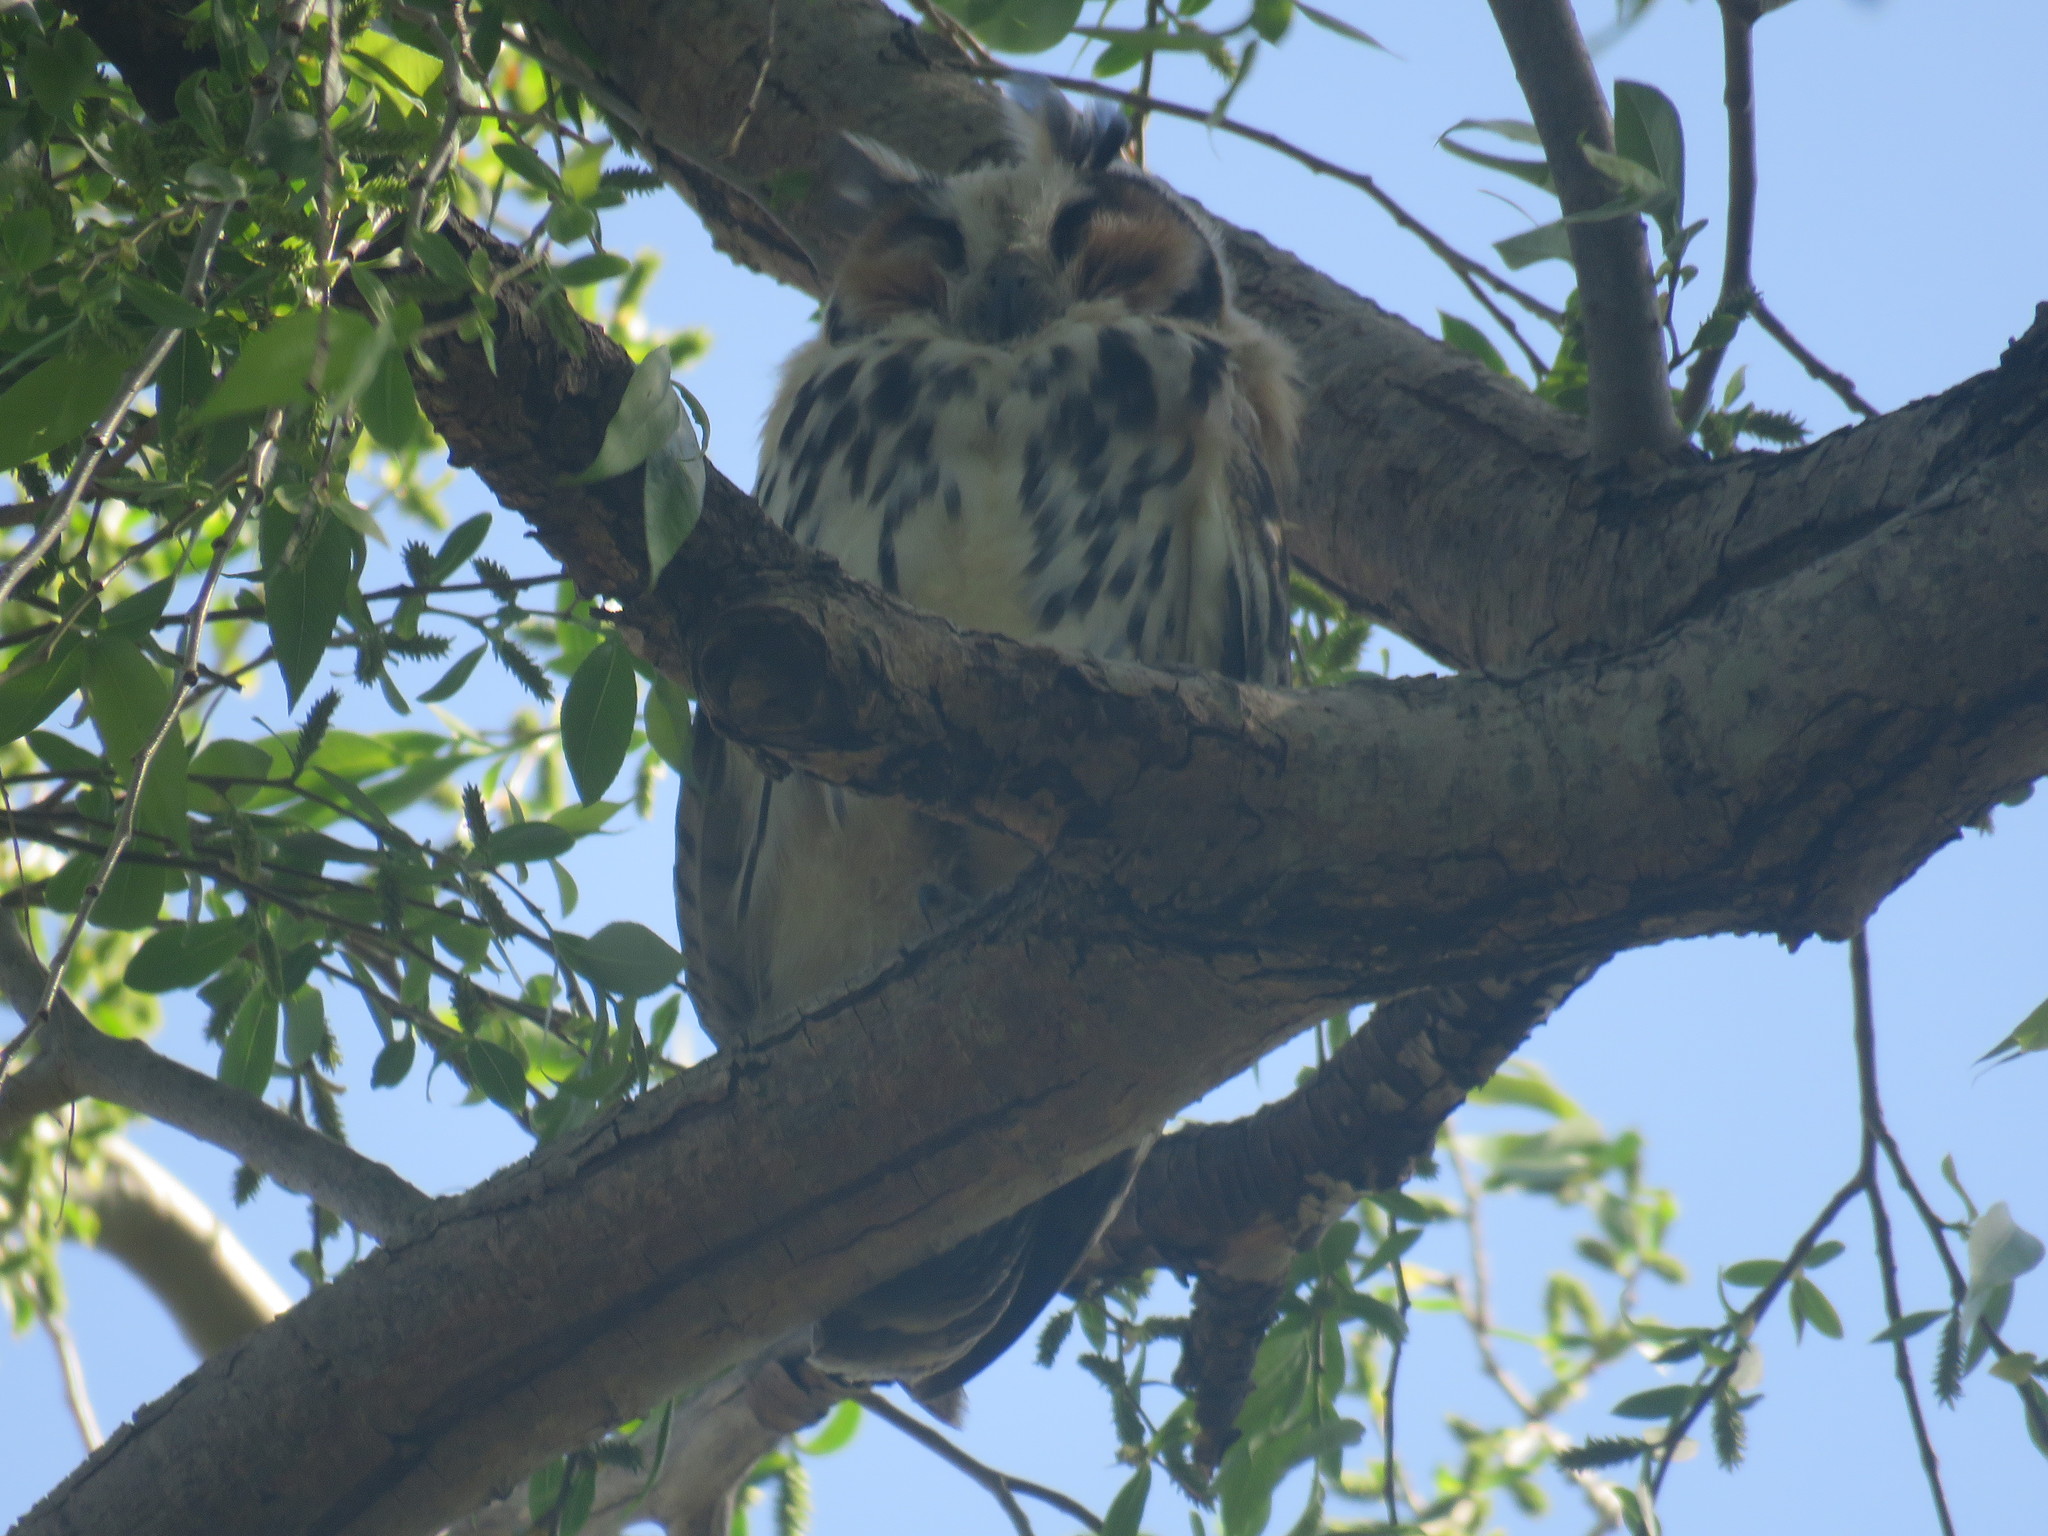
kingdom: Animalia
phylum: Chordata
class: Aves
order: Strigiformes
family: Strigidae
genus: Pseudoscops
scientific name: Pseudoscops clamator
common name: Striped owl
